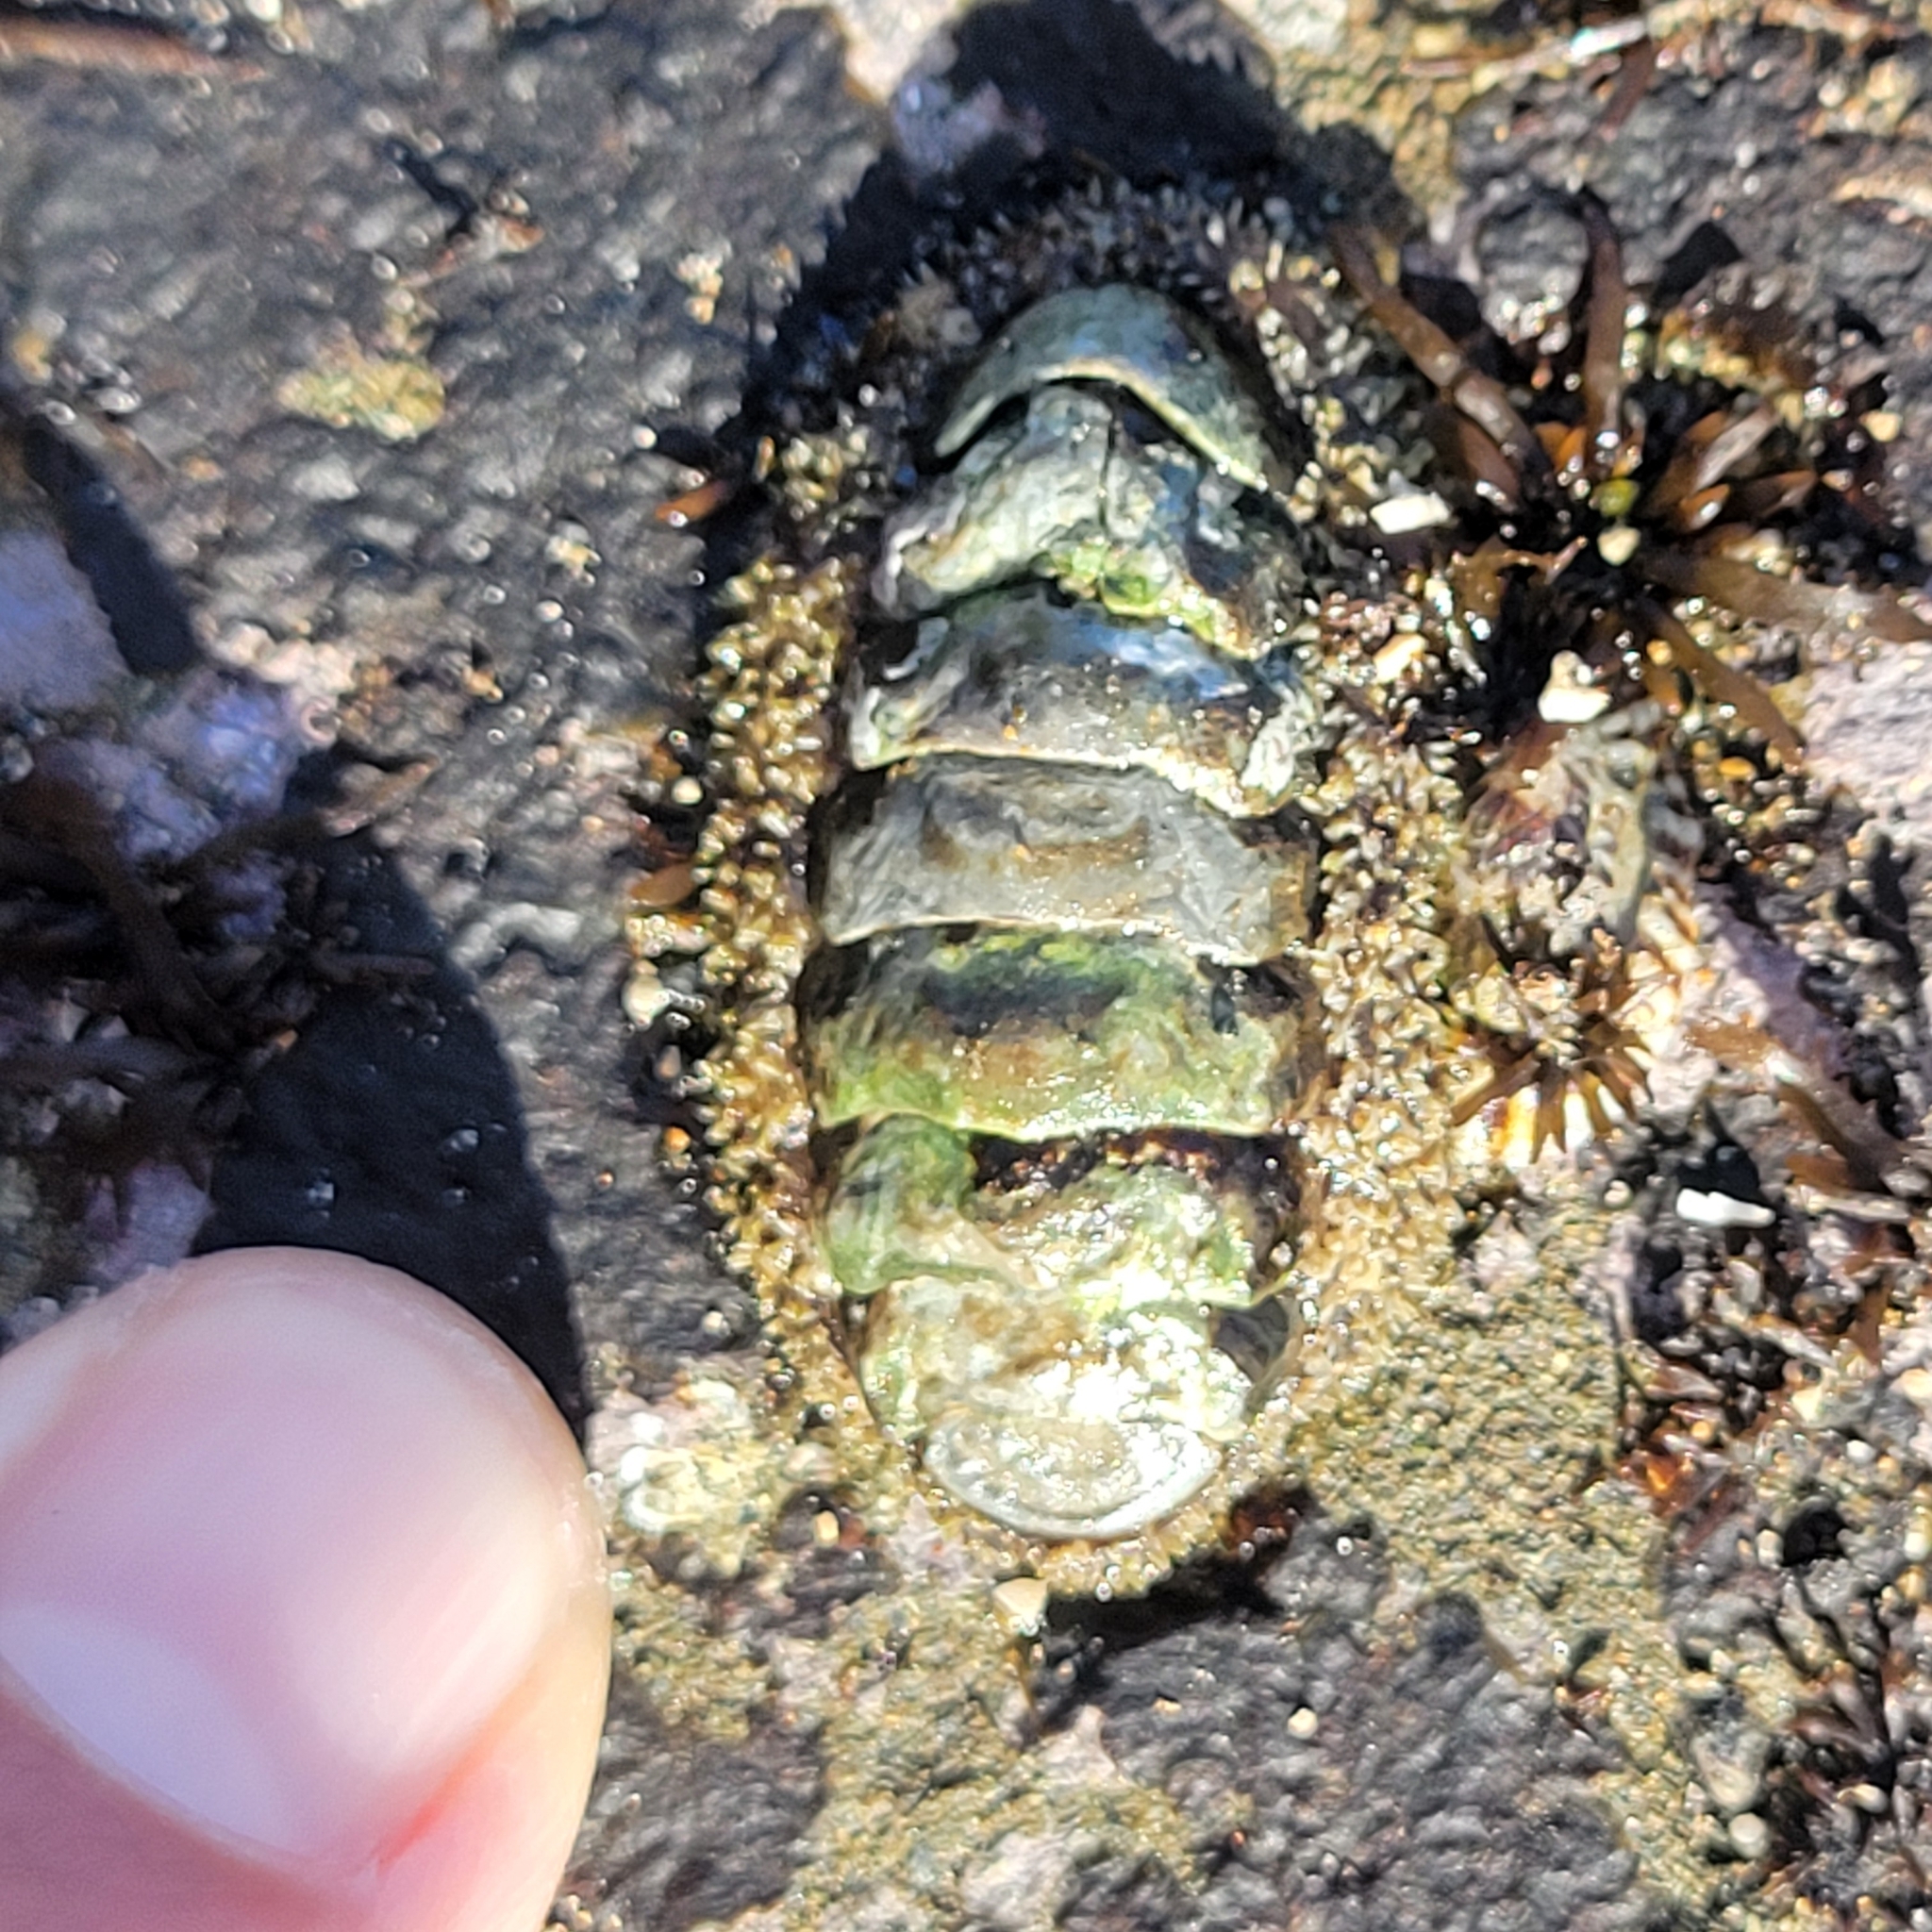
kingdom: Animalia
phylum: Mollusca
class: Polyplacophora
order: Chitonida
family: Tonicellidae
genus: Nuttallina
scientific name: Nuttallina californica
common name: California nuttall chiton
